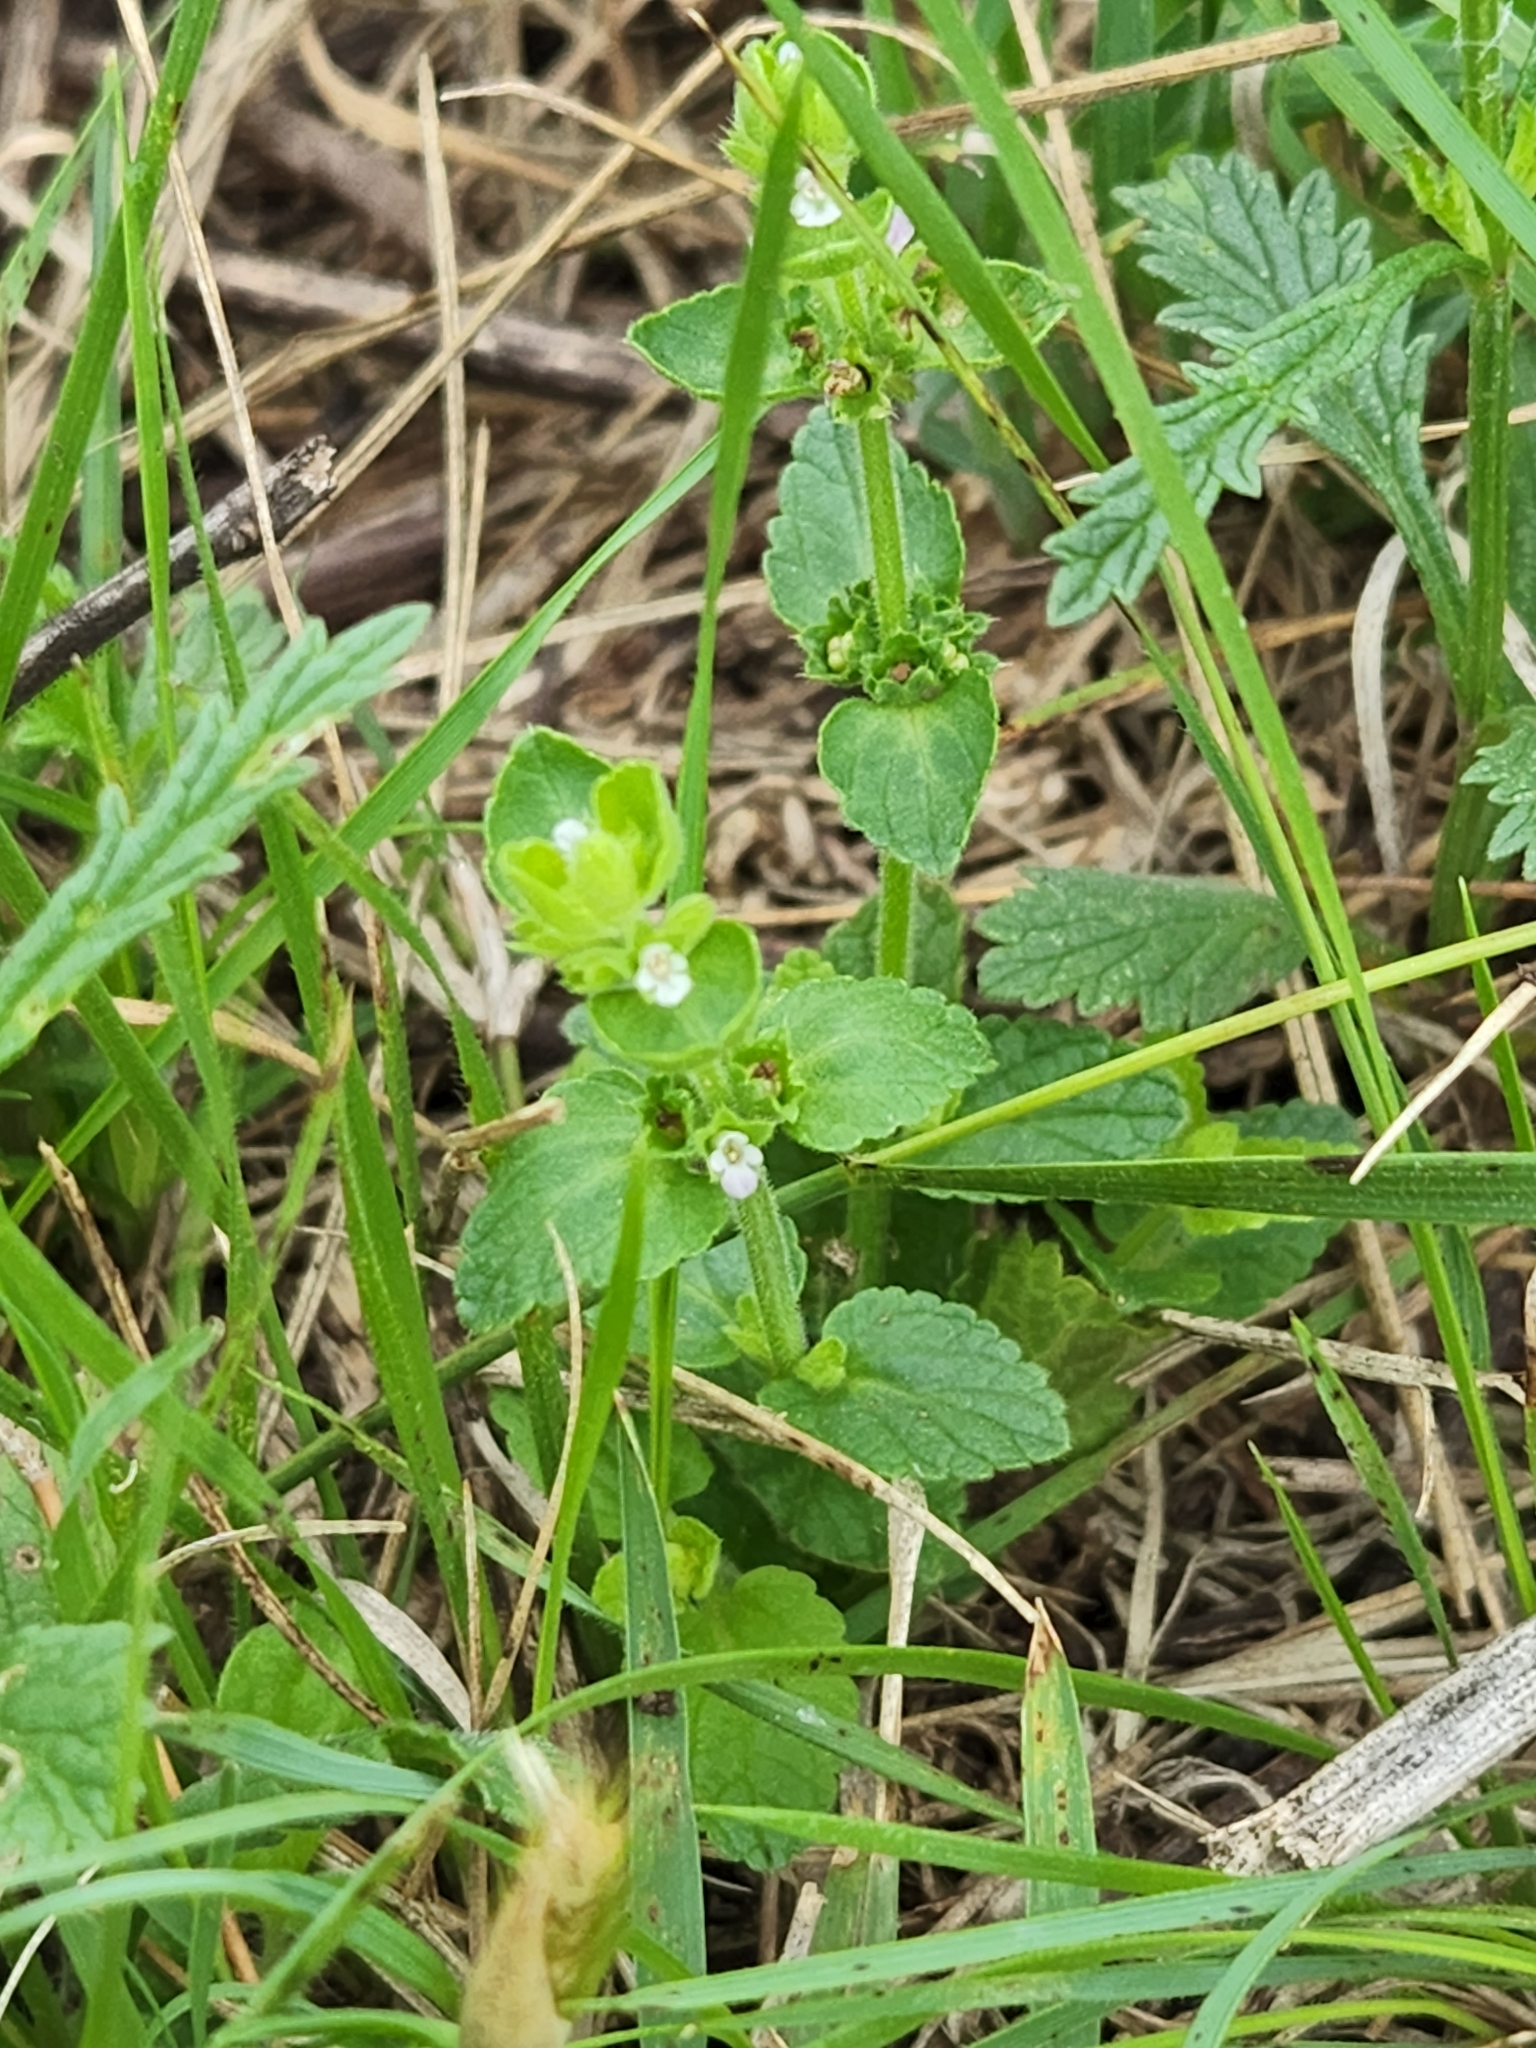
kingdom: Plantae
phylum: Tracheophyta
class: Magnoliopsida
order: Lamiales
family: Lamiaceae
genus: Stachys
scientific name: Stachys
